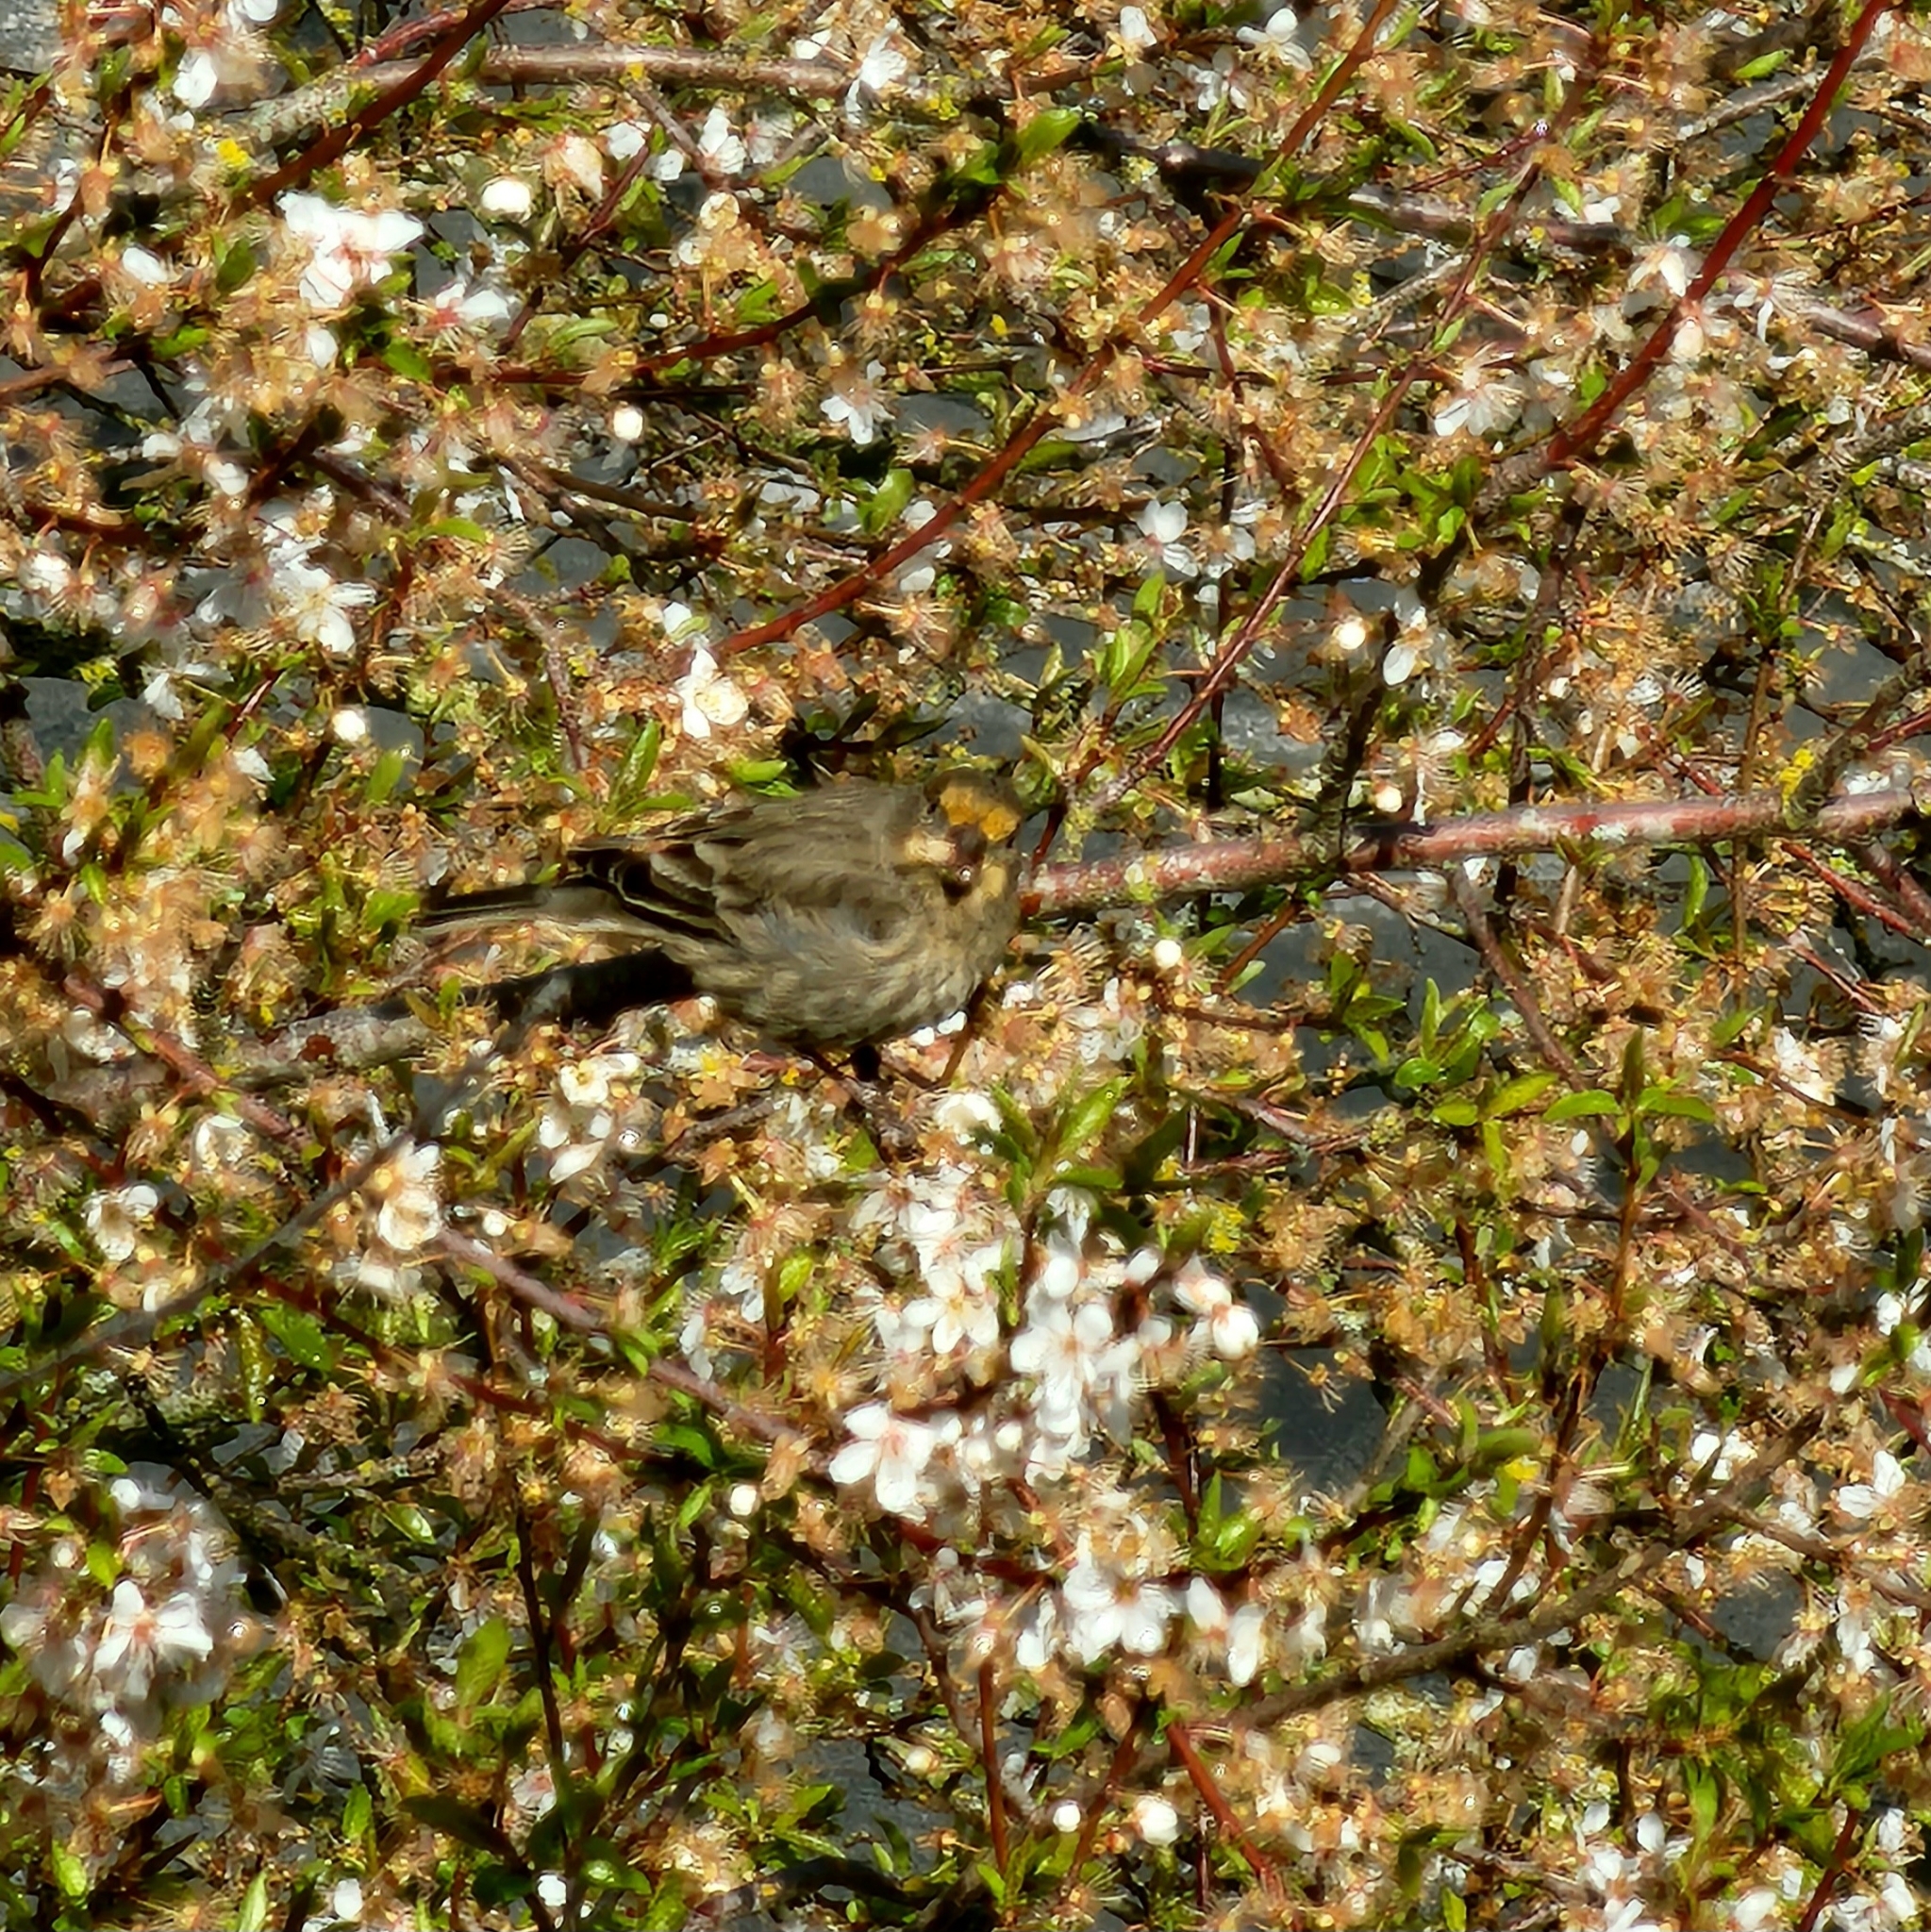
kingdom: Animalia
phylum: Chordata
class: Aves
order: Passeriformes
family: Fringillidae
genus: Haemorhous
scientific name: Haemorhous mexicanus
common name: House finch
